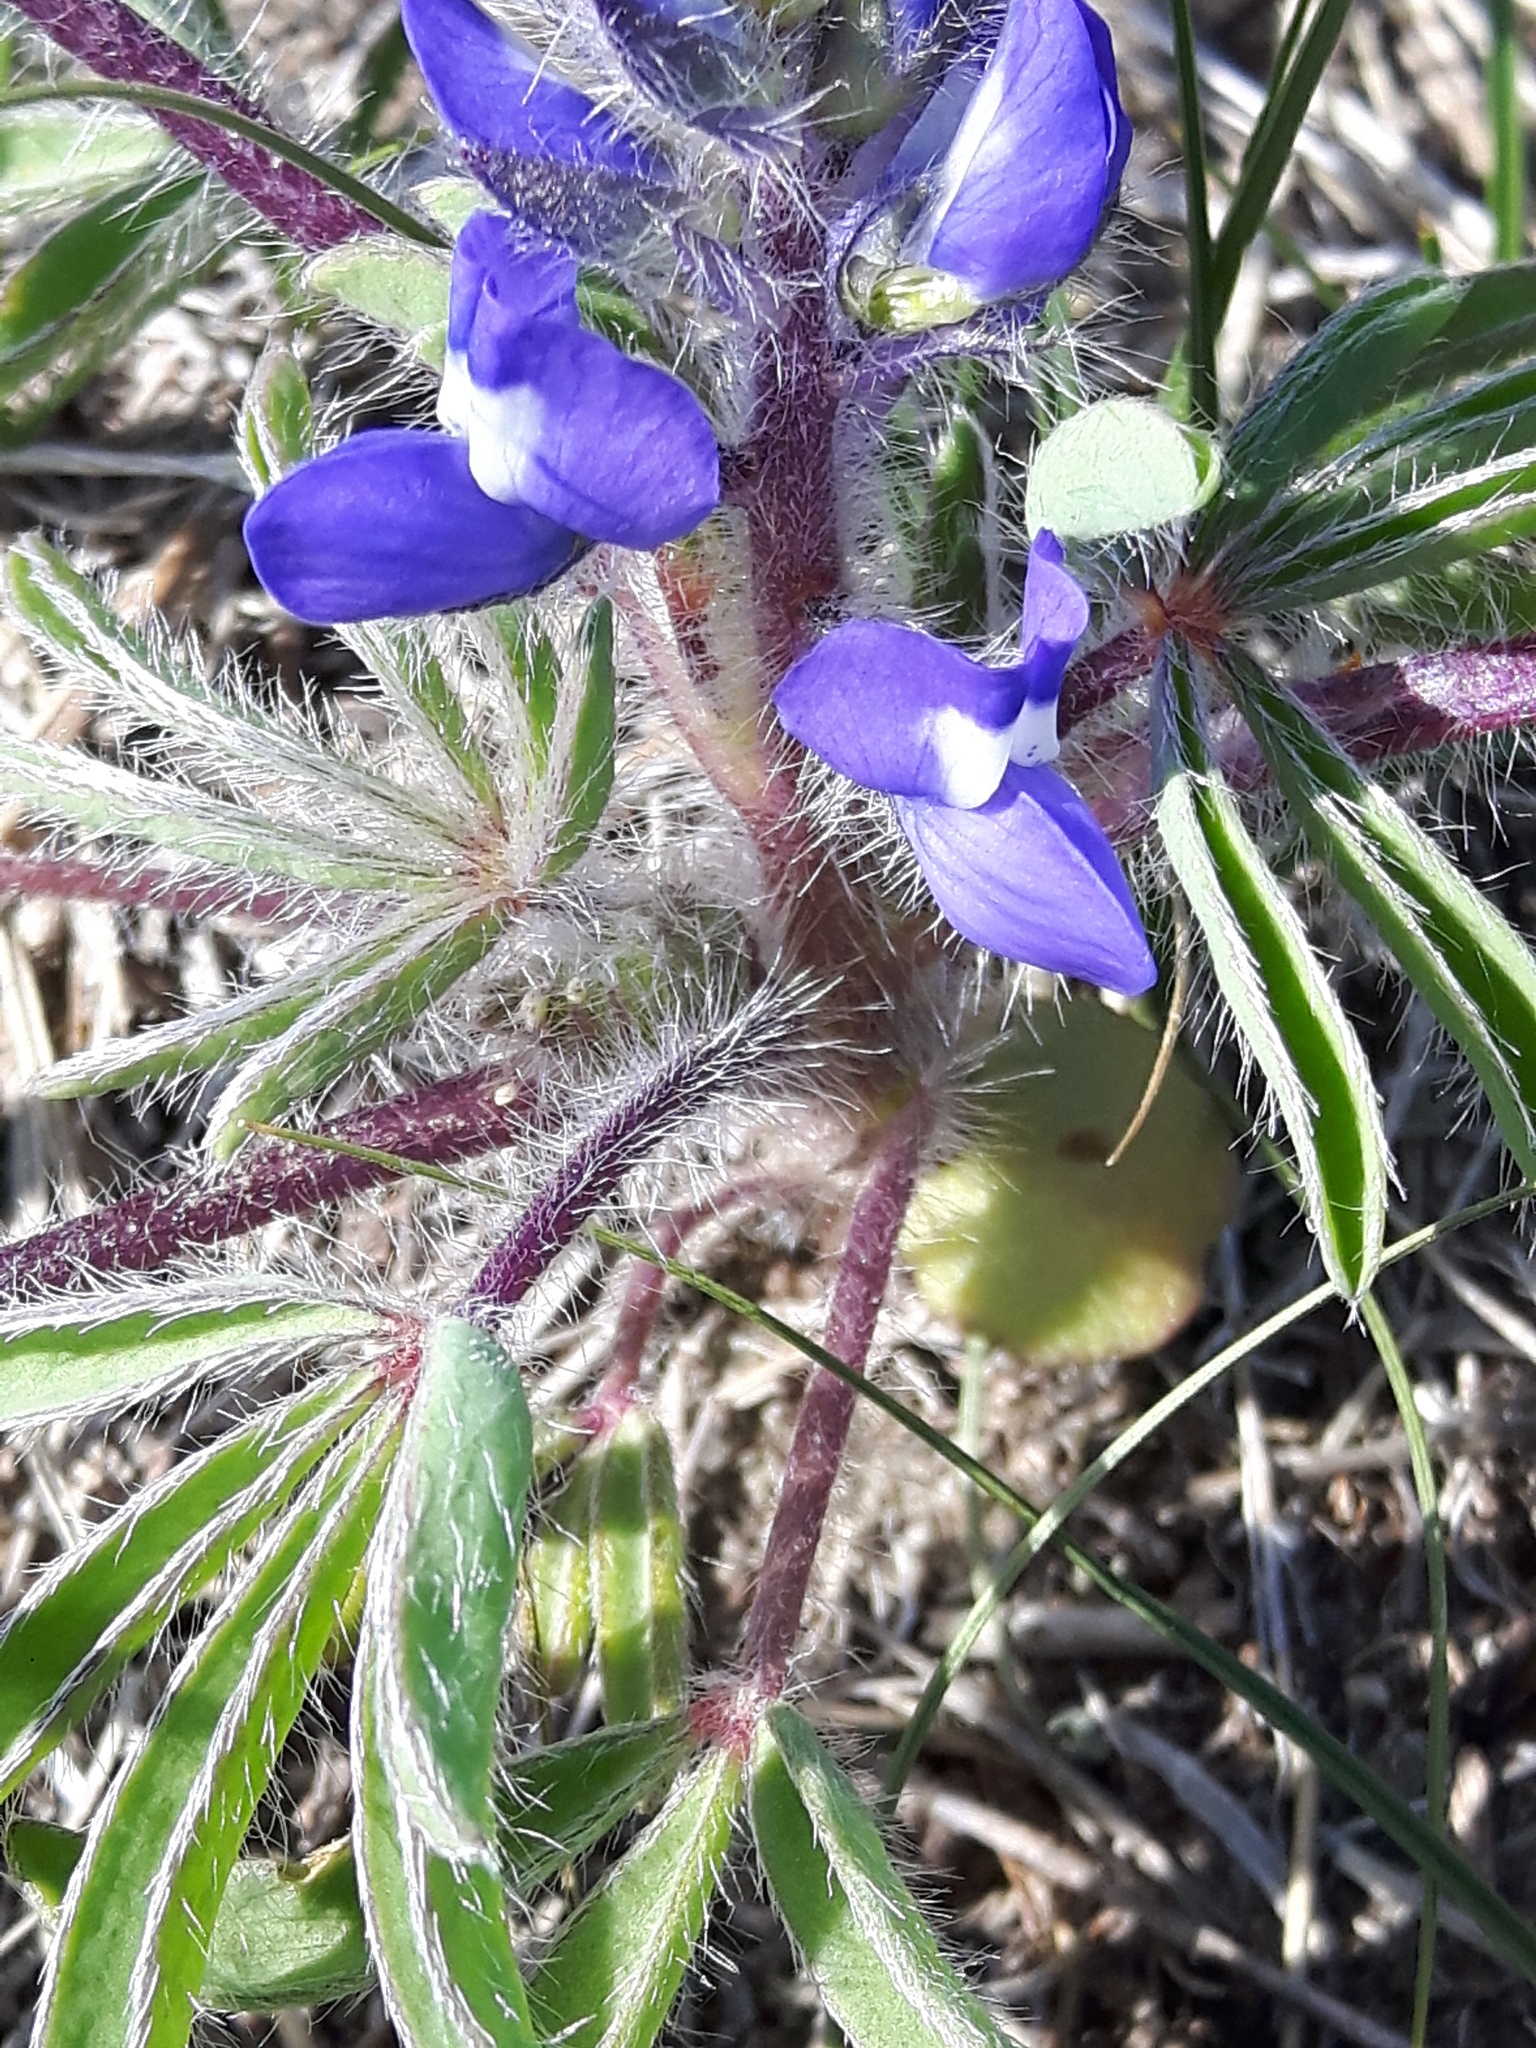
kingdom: Plantae
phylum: Tracheophyta
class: Magnoliopsida
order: Fabales
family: Fabaceae
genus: Lupinus
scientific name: Lupinus pusillus
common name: Low lupine
